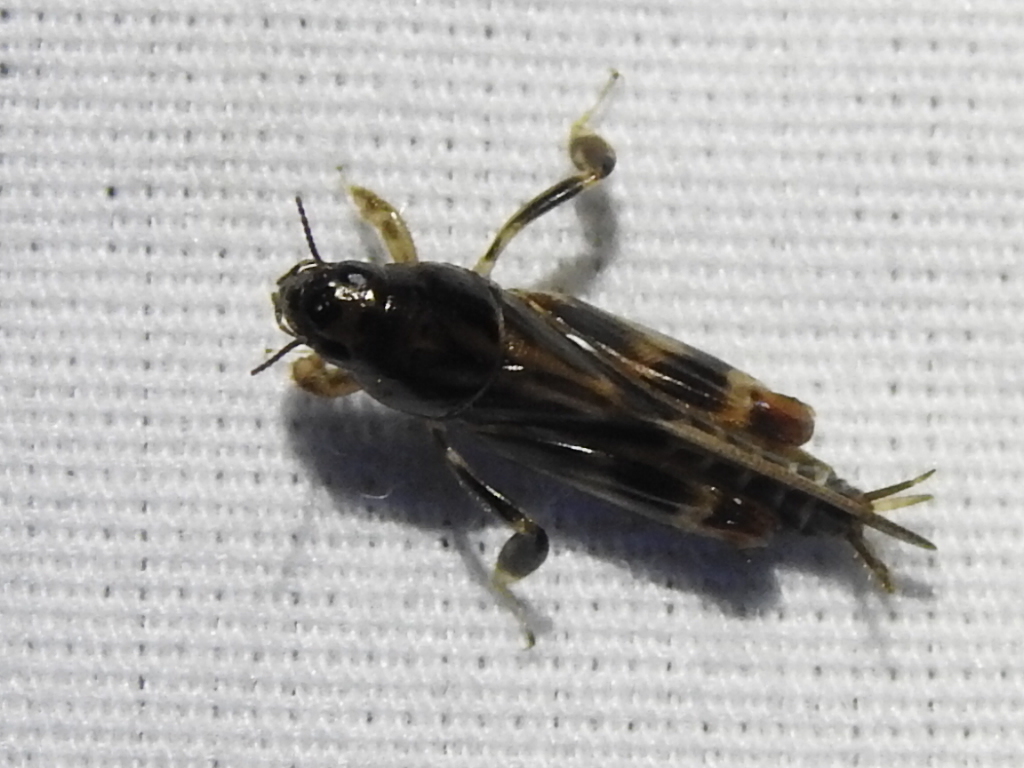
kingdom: Animalia
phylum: Arthropoda
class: Insecta
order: Orthoptera
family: Tridactylidae
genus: Neotridactylus
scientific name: Neotridactylus apicialis
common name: Larger pygmy locust
